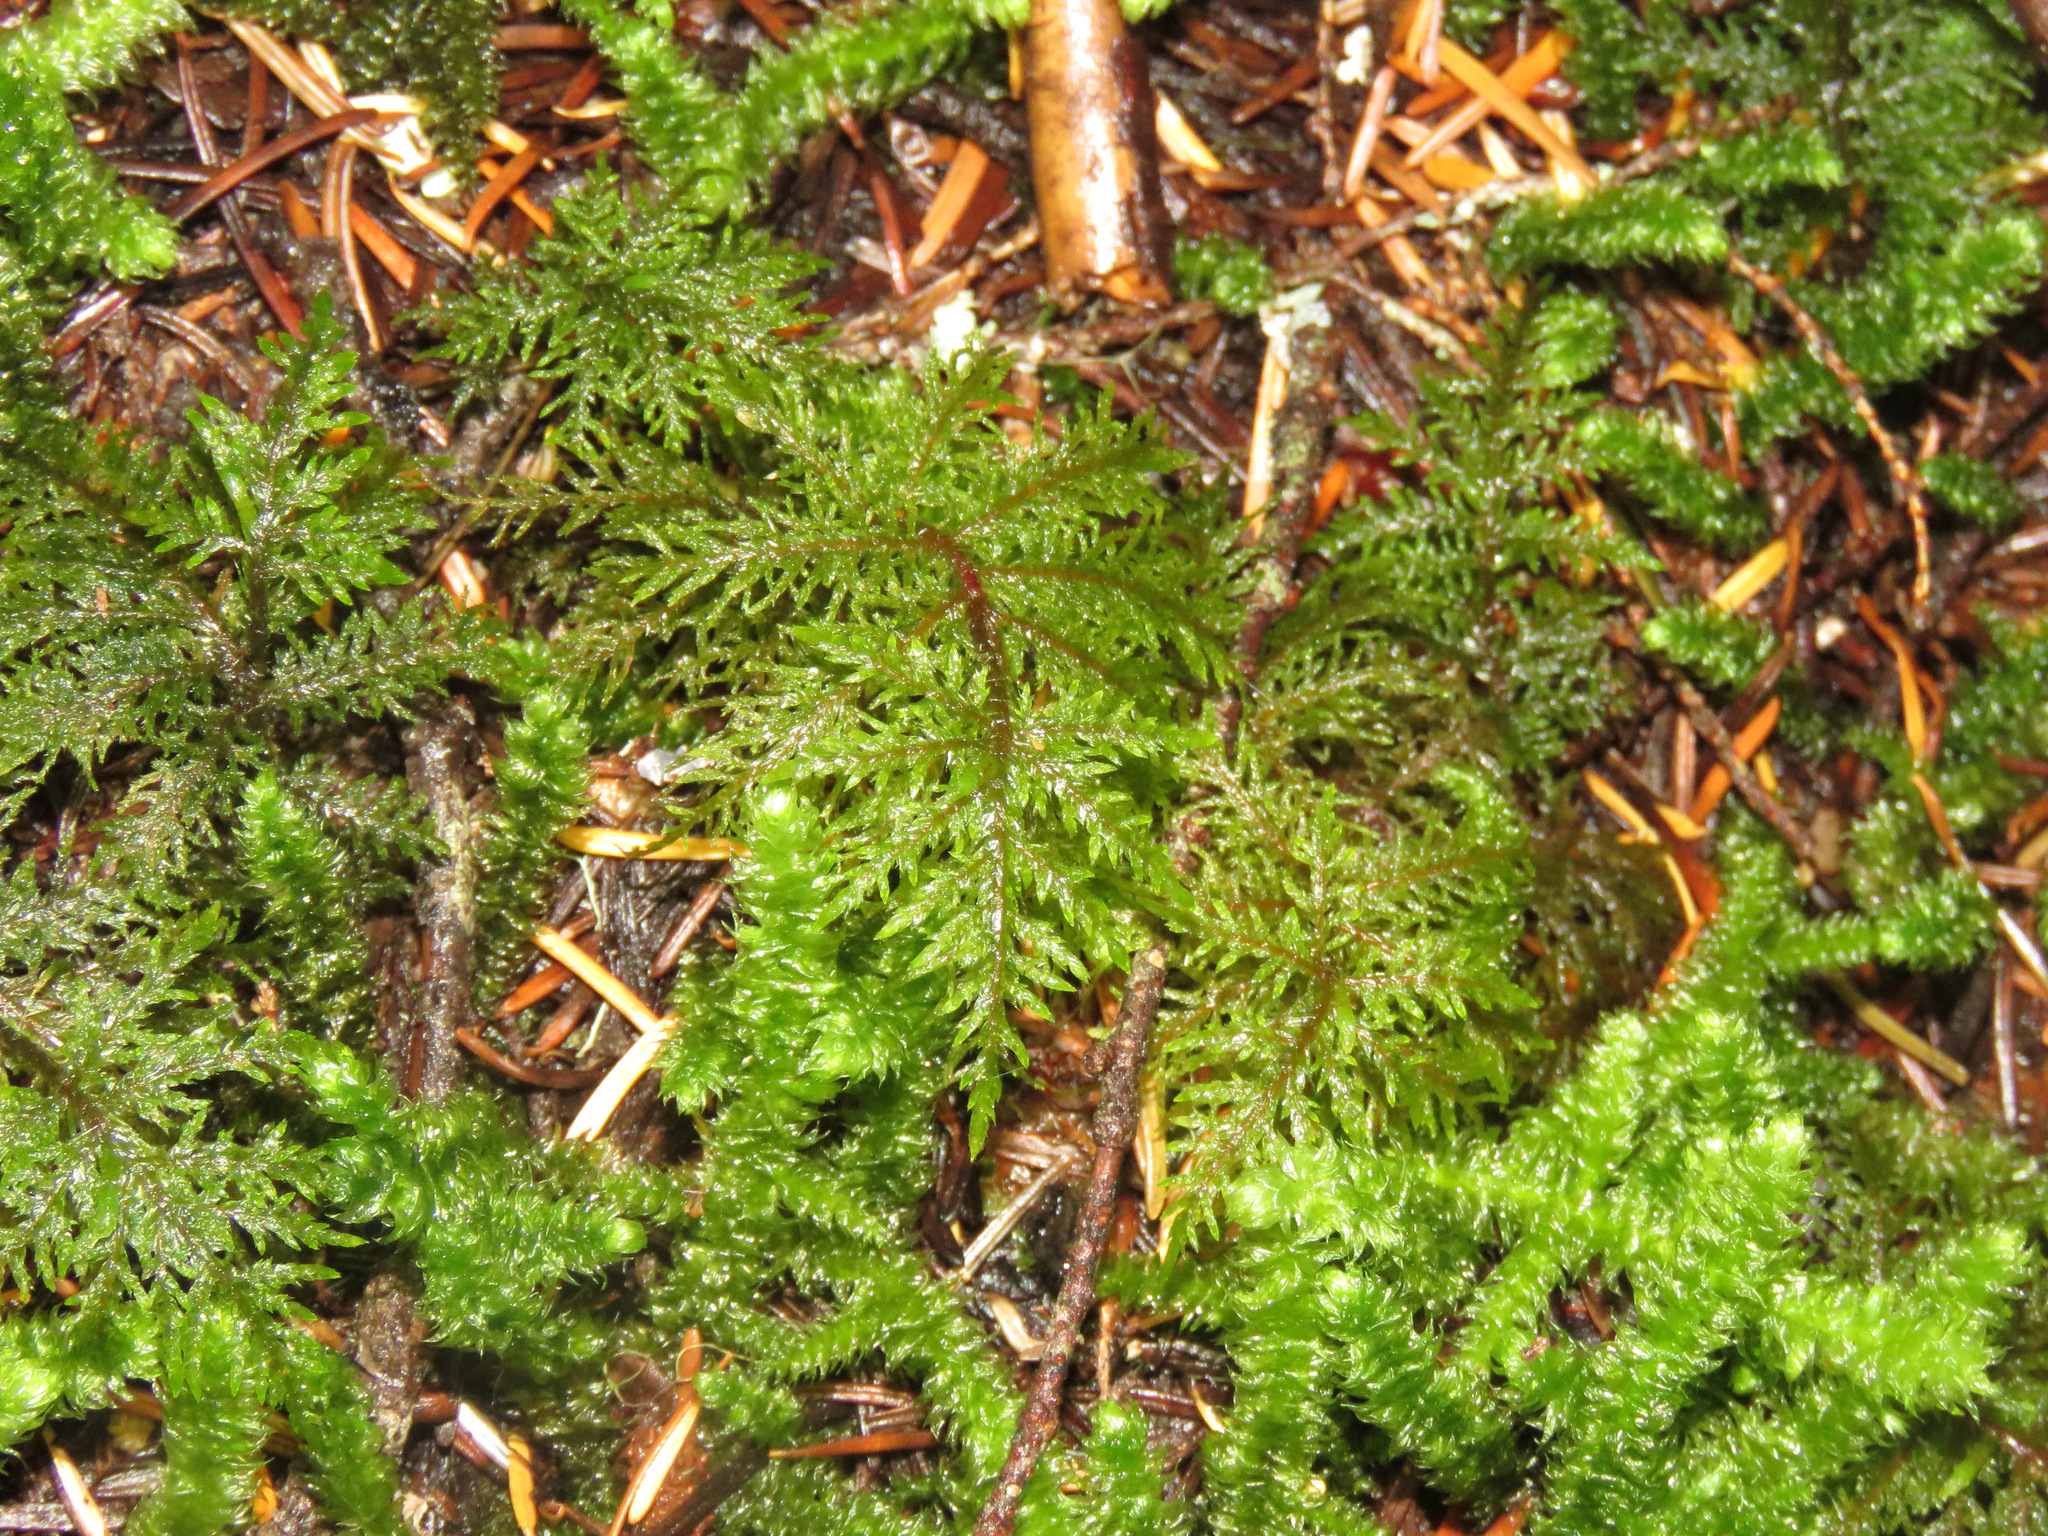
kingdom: Plantae
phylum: Bryophyta
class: Bryopsida
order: Hypnales
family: Hylocomiaceae
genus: Hylocomium
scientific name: Hylocomium splendens
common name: Stairstep moss
